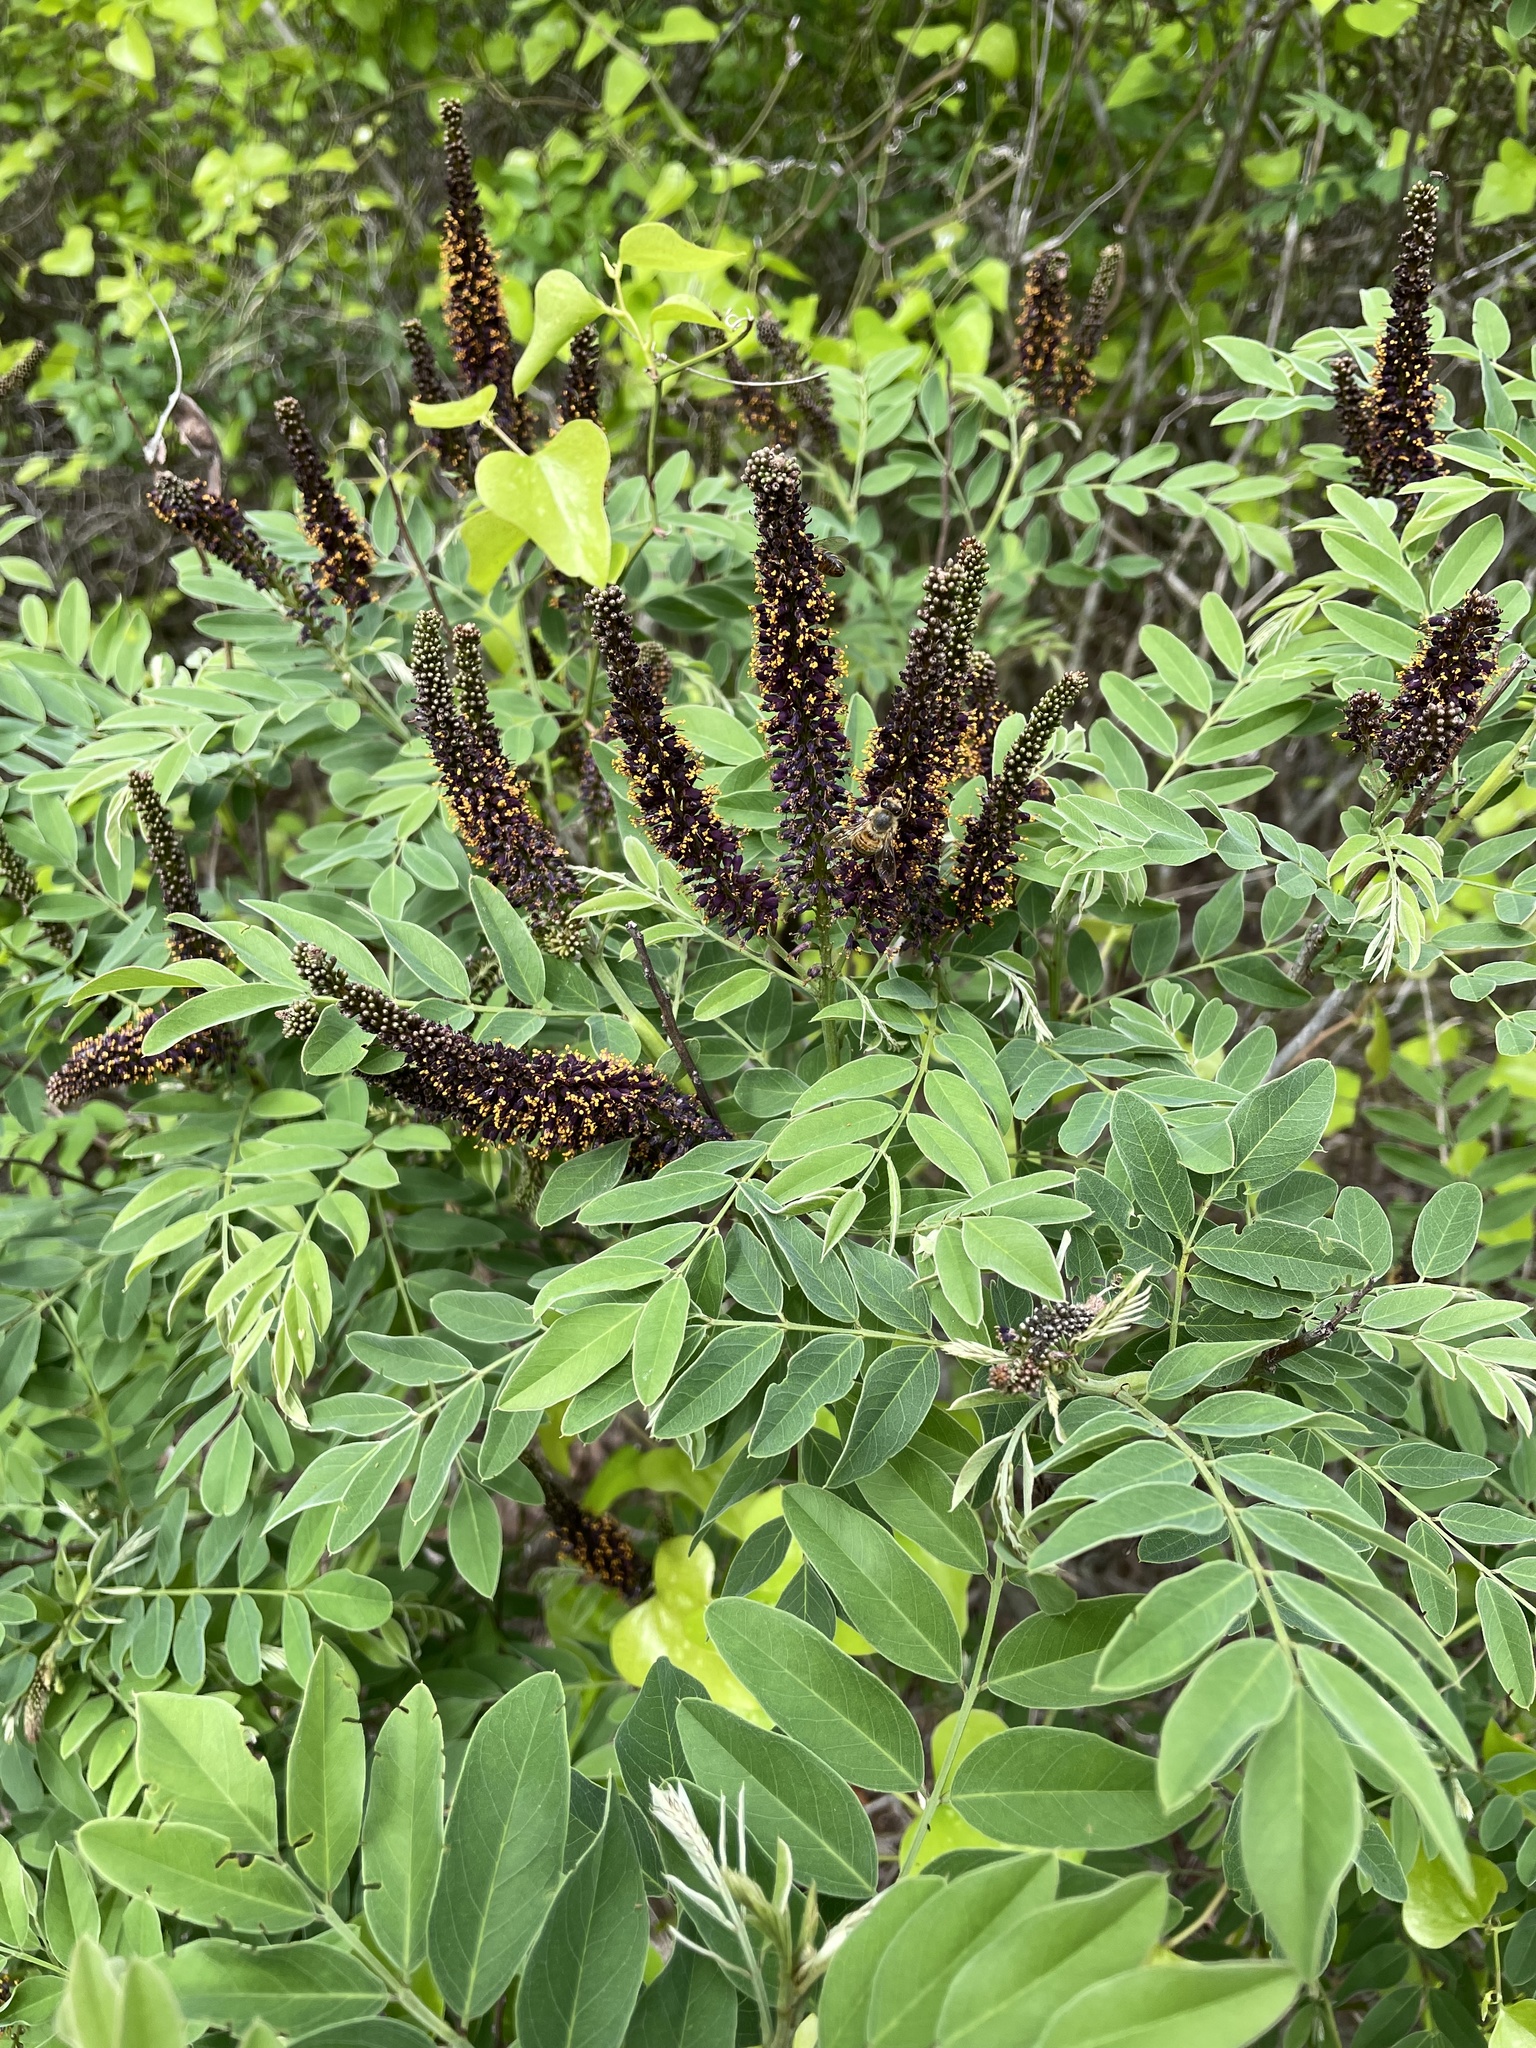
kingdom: Plantae
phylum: Tracheophyta
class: Magnoliopsida
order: Fabales
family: Fabaceae
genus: Amorpha
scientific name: Amorpha fruticosa
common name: False indigo
